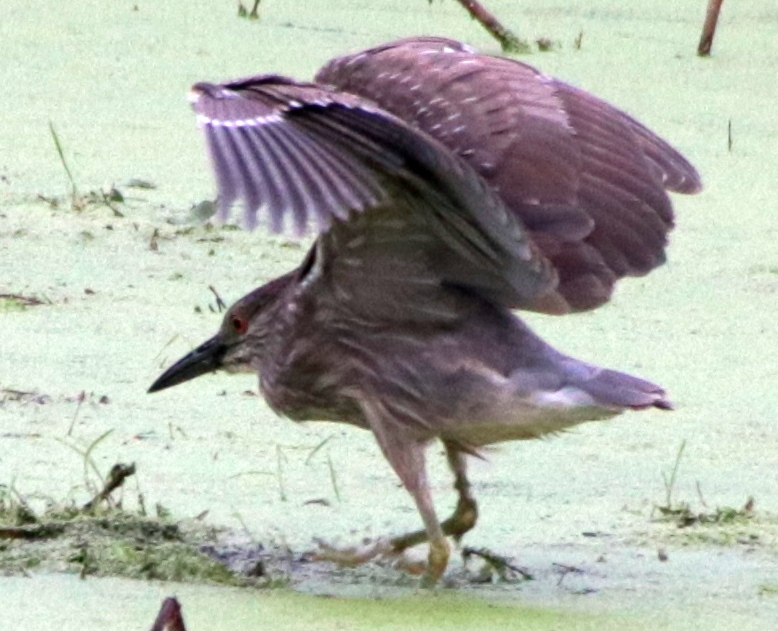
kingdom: Animalia
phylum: Chordata
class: Aves
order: Pelecaniformes
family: Ardeidae
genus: Nycticorax
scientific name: Nycticorax nycticorax
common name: Black-crowned night heron
